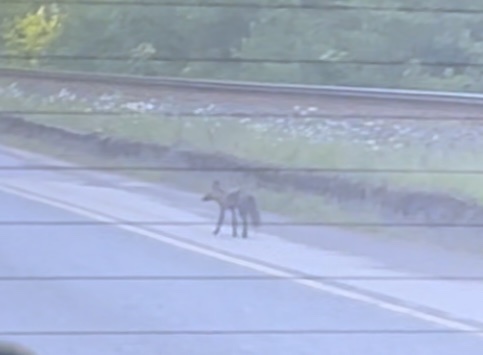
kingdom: Animalia
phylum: Chordata
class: Mammalia
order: Carnivora
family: Canidae
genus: Vulpes
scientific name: Vulpes vulpes
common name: Red fox
